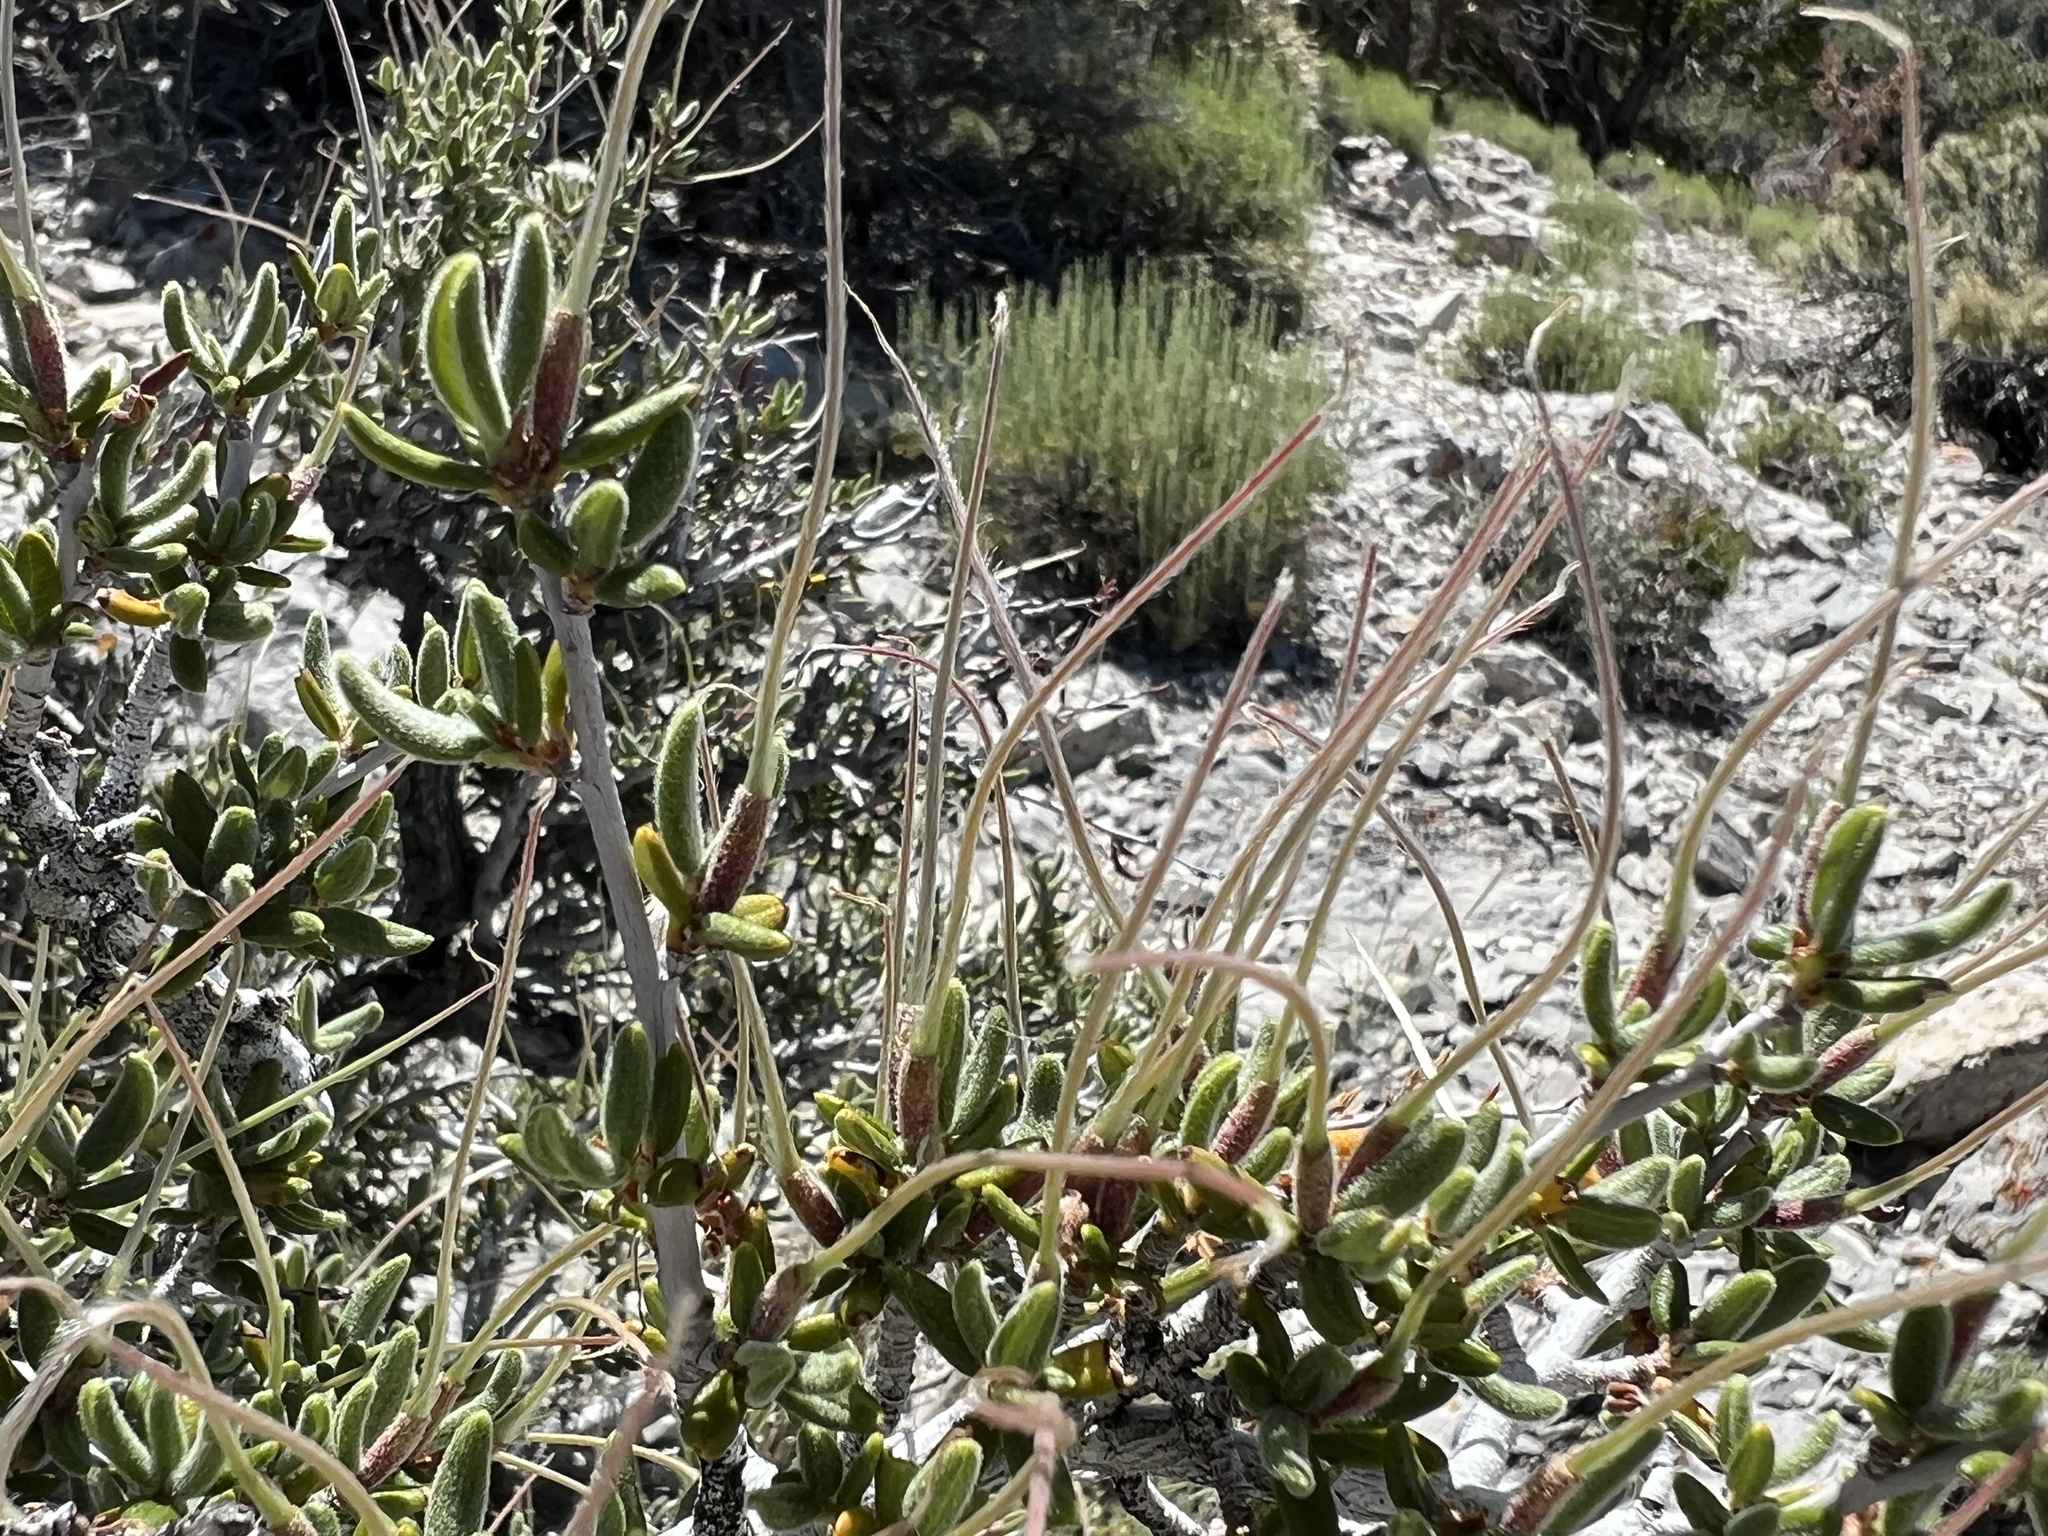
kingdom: Plantae
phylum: Tracheophyta
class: Magnoliopsida
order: Rosales
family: Rosaceae
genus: Cercocarpus
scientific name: Cercocarpus intricatus
